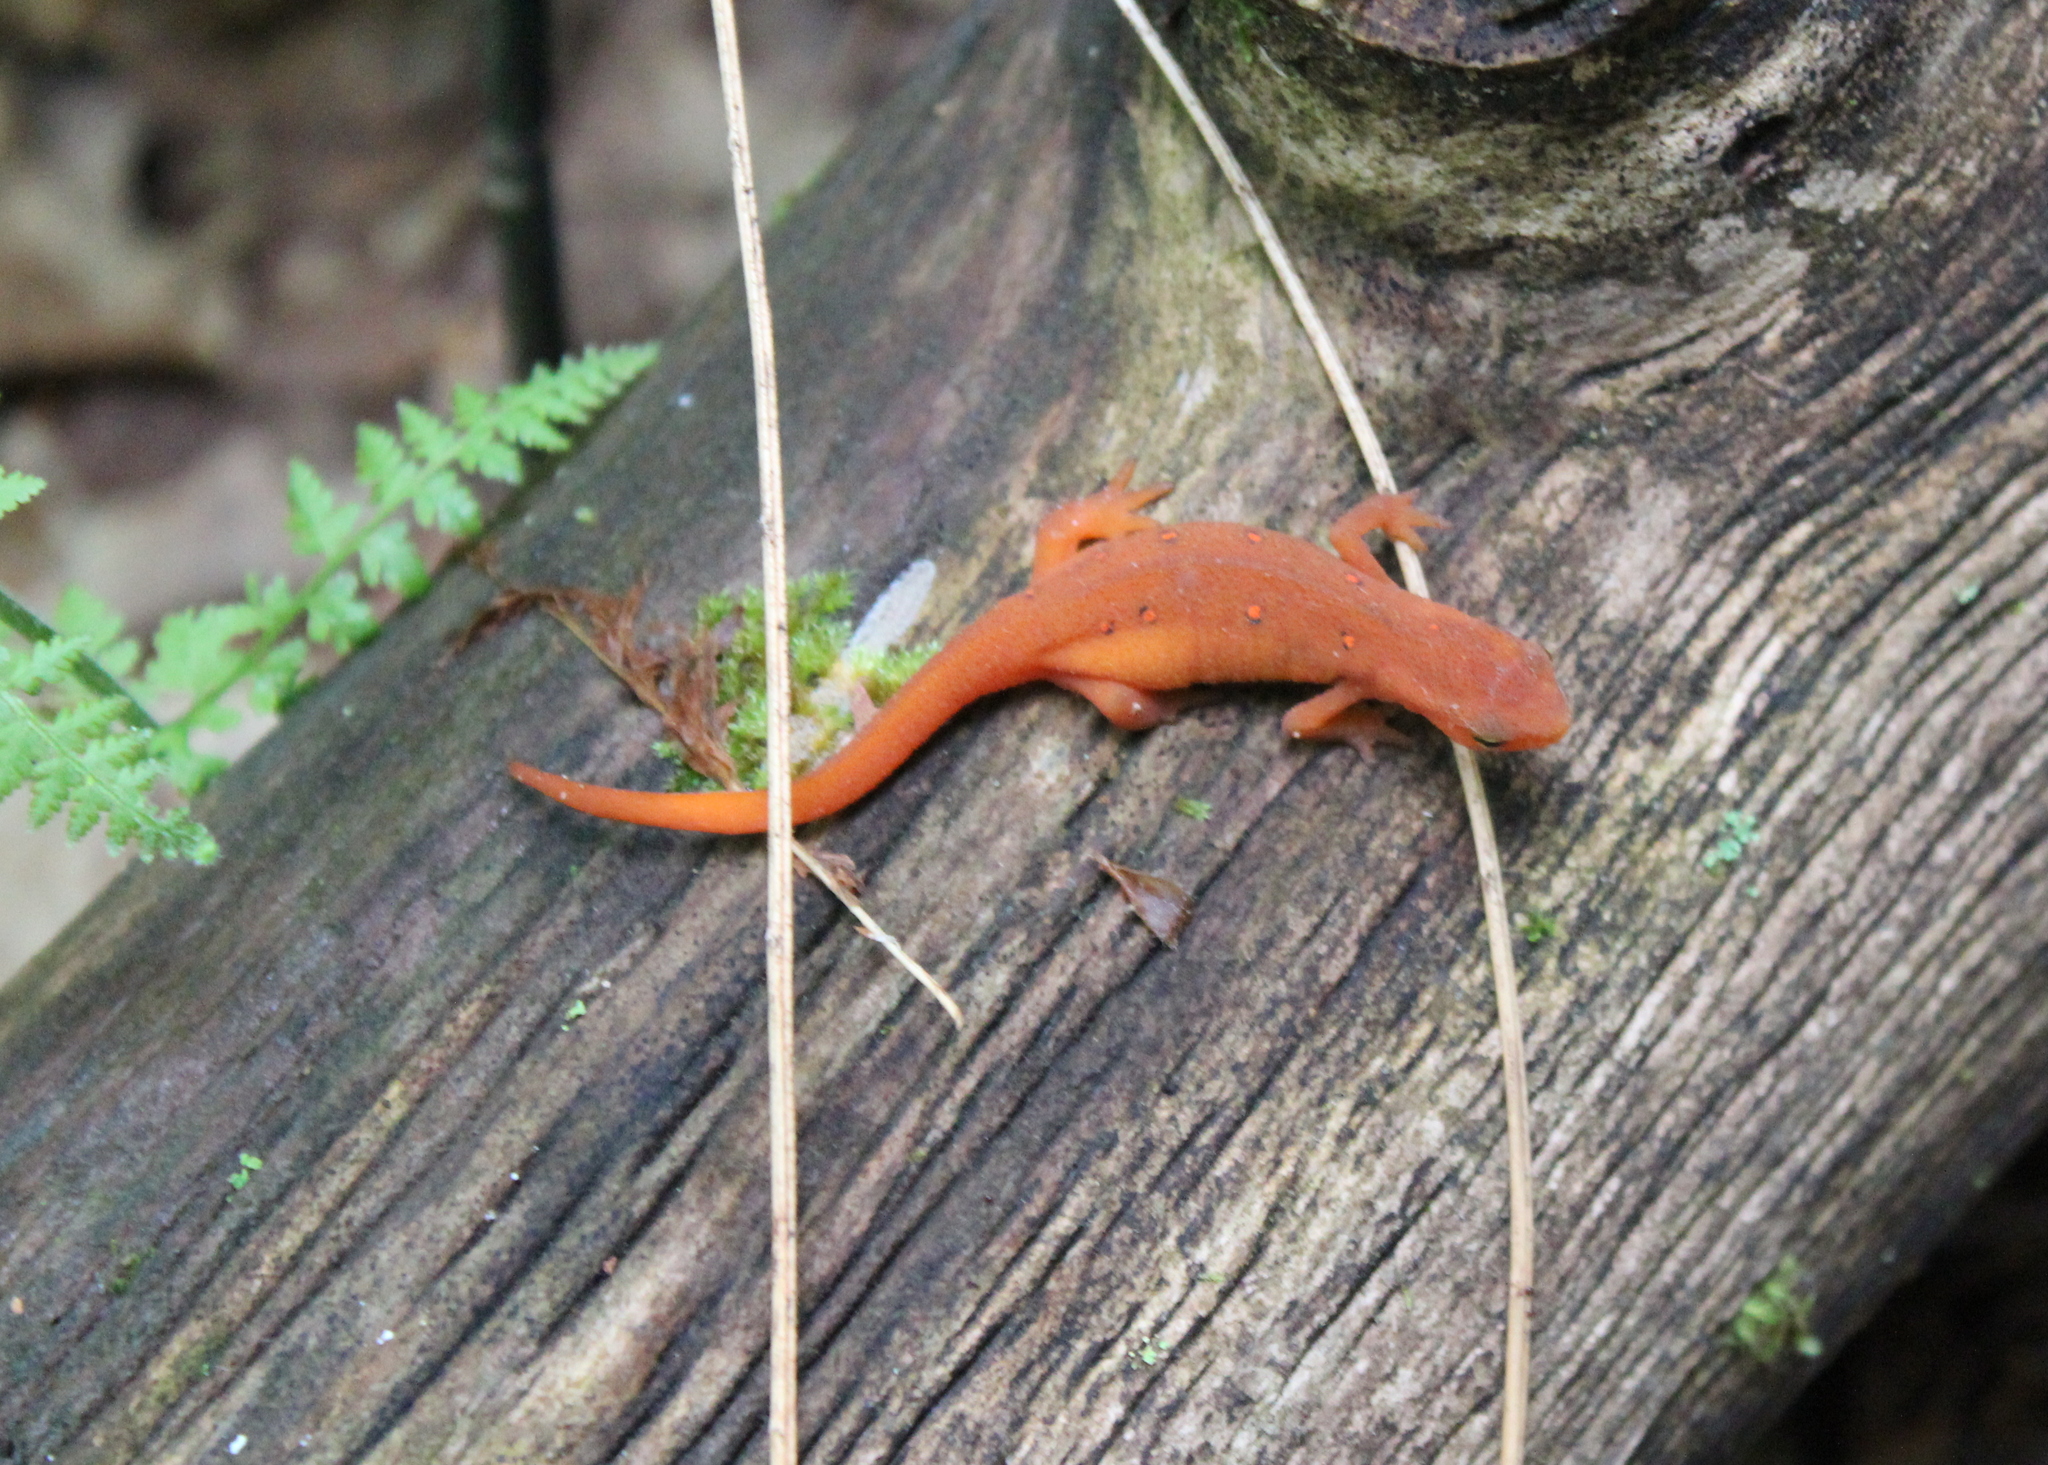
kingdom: Animalia
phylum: Chordata
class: Amphibia
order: Caudata
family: Salamandridae
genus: Notophthalmus
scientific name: Notophthalmus viridescens
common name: Eastern newt
